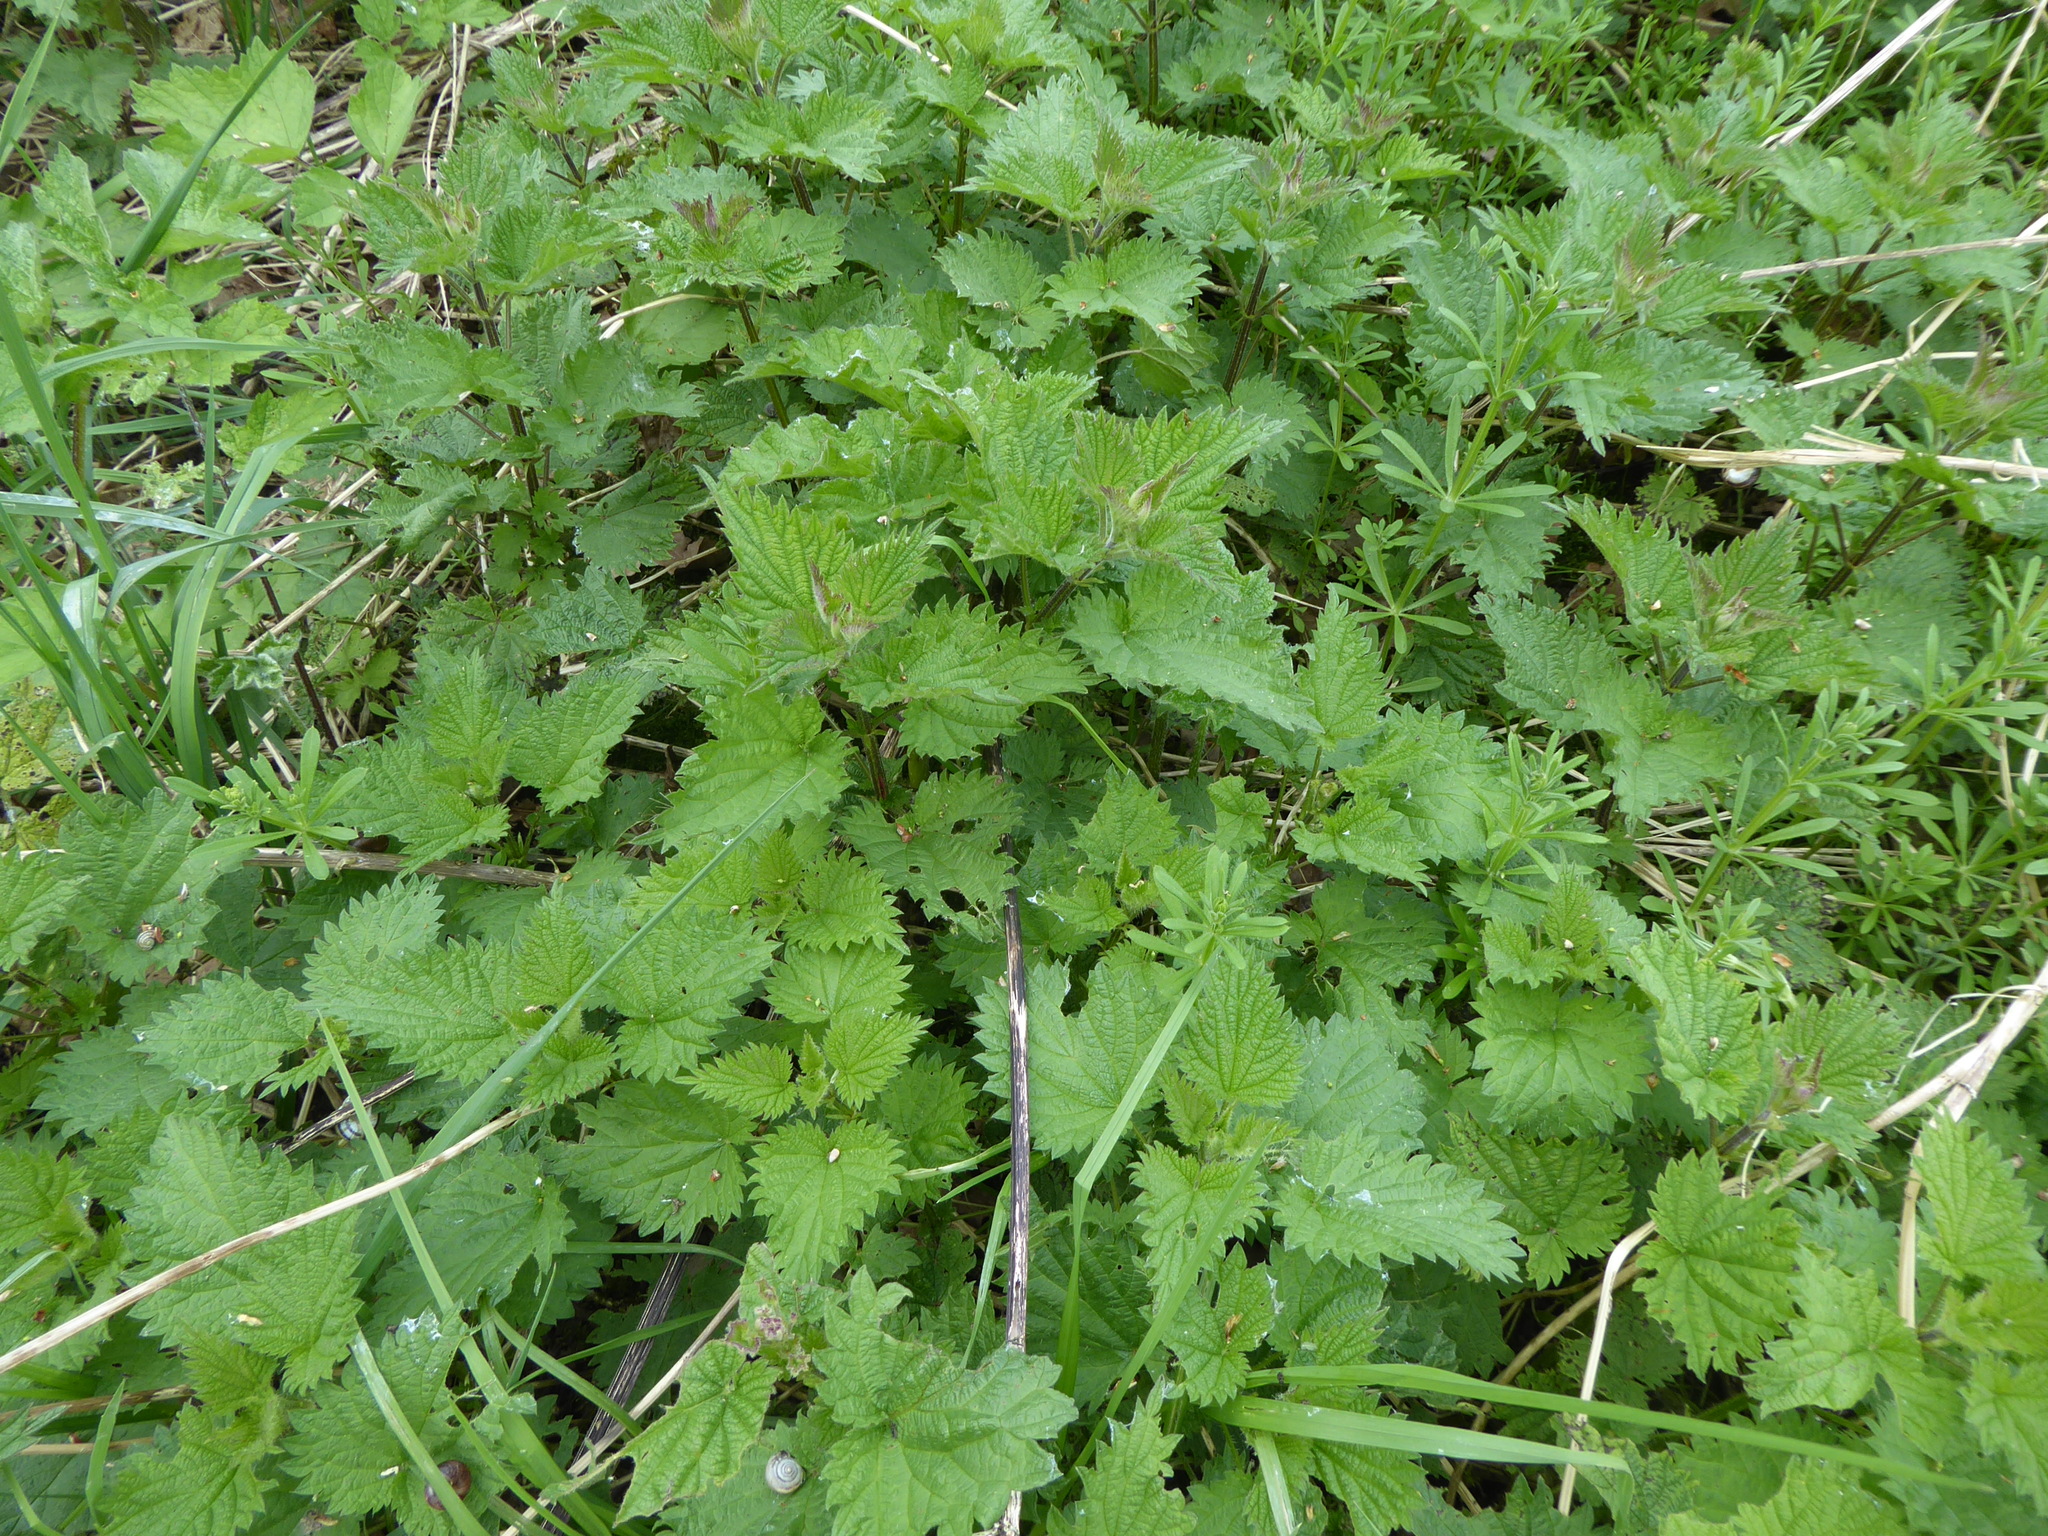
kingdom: Plantae
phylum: Tracheophyta
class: Magnoliopsida
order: Rosales
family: Urticaceae
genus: Urtica
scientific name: Urtica dioica
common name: Common nettle
